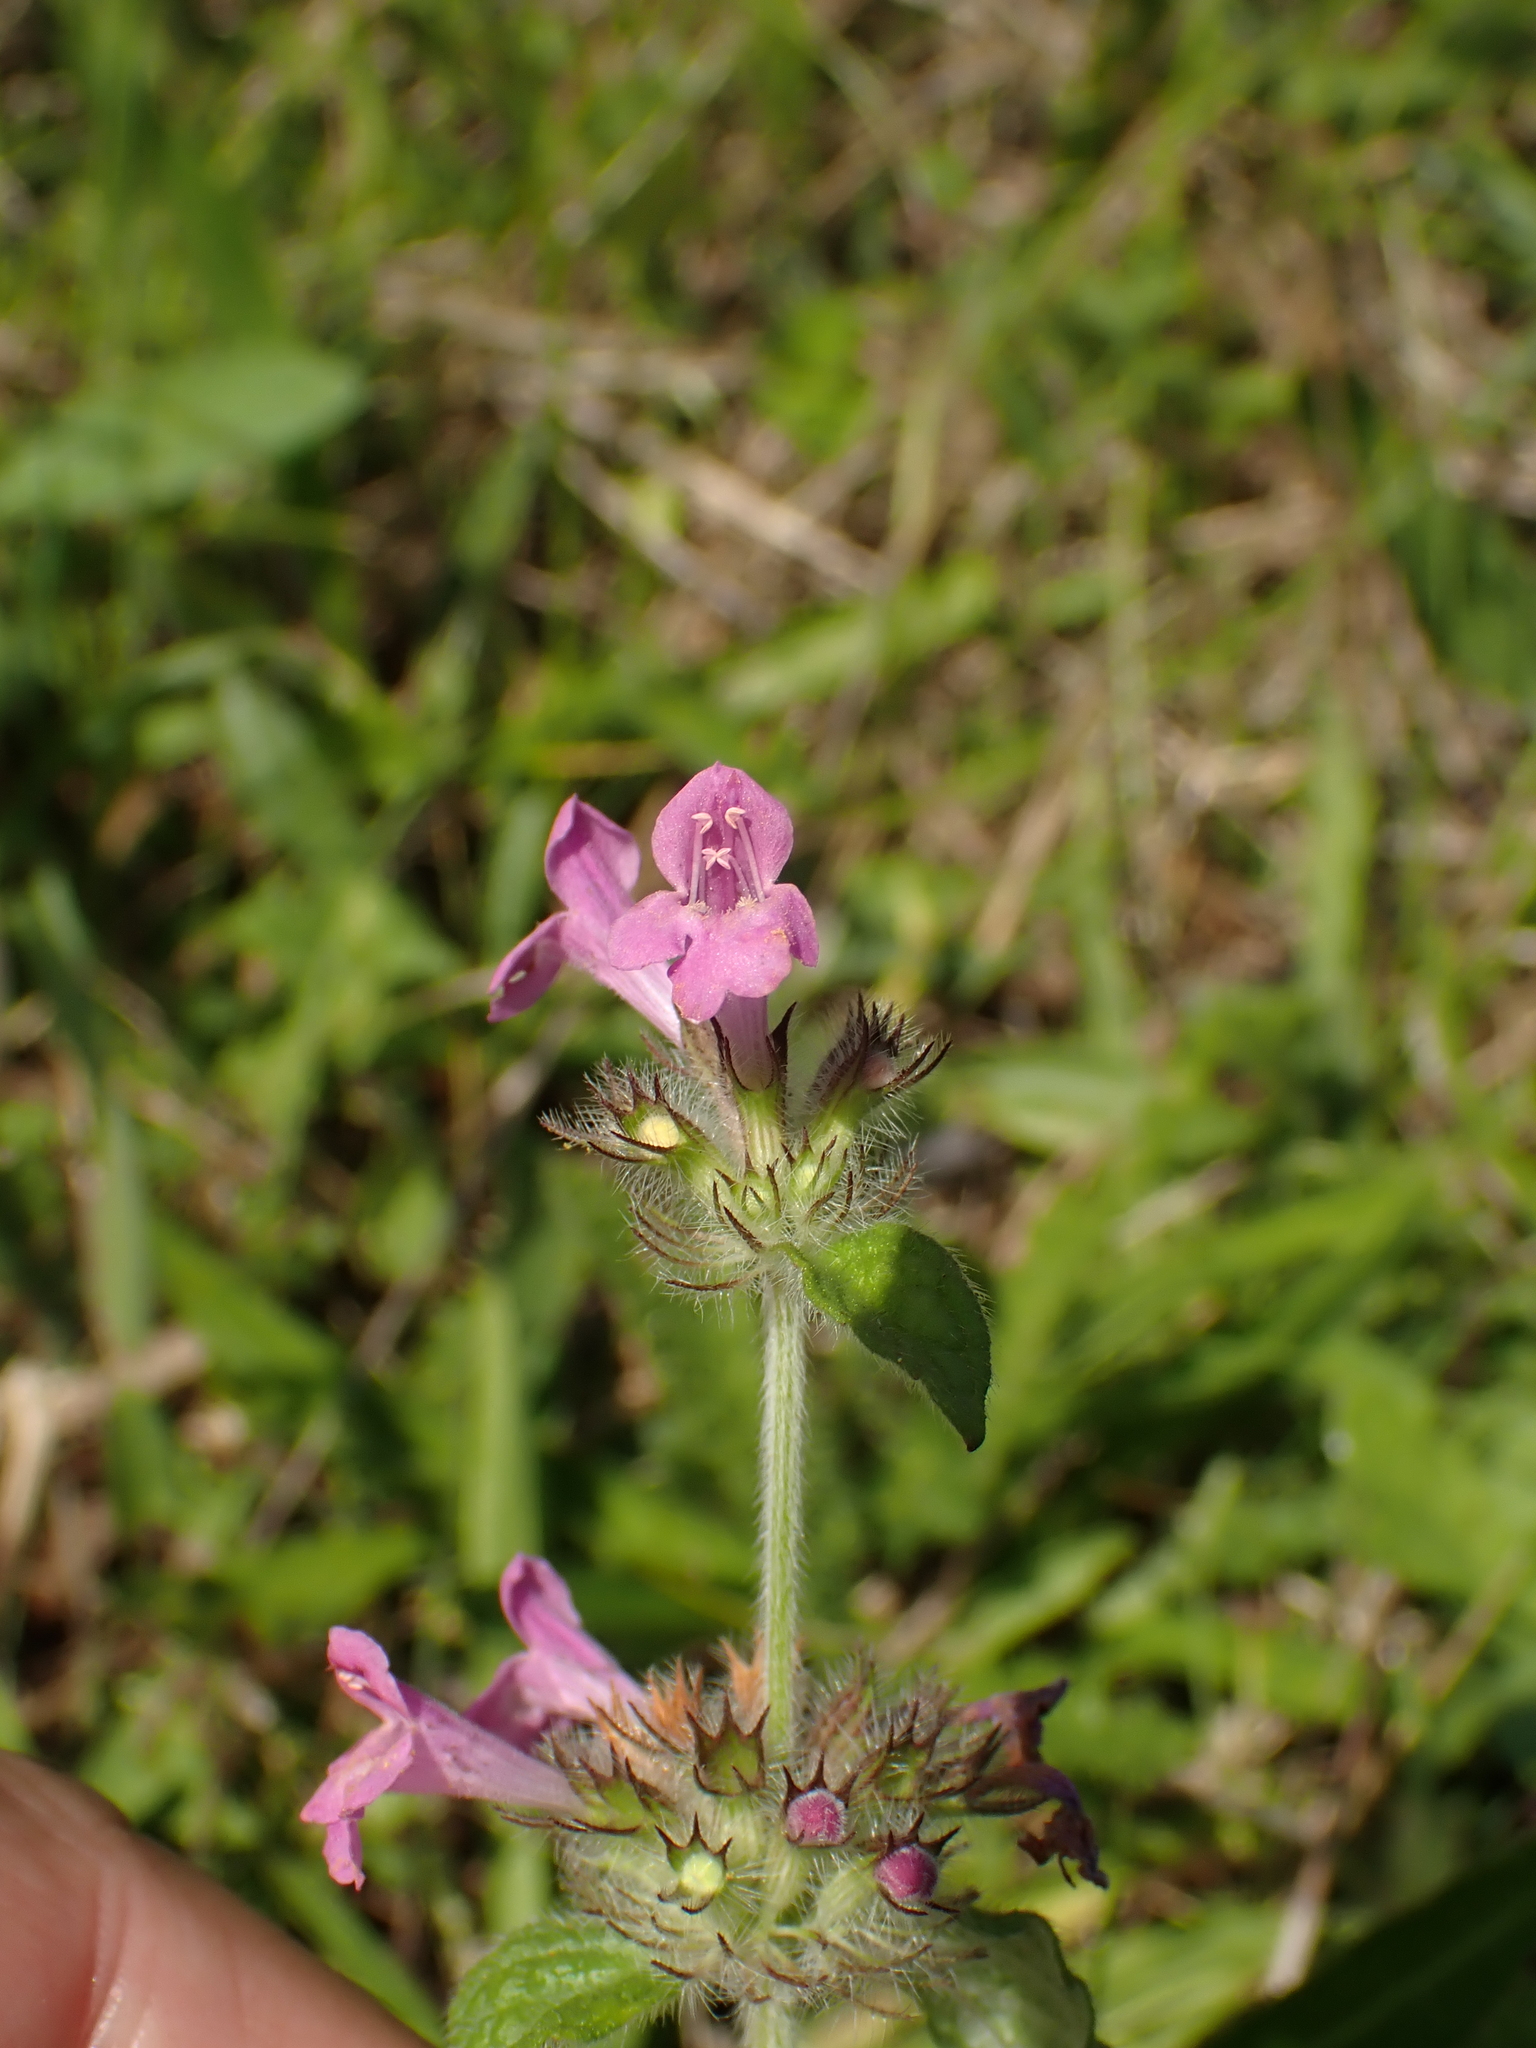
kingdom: Plantae
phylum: Tracheophyta
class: Magnoliopsida
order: Lamiales
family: Lamiaceae
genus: Clinopodium
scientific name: Clinopodium vulgare
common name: Wild basil
